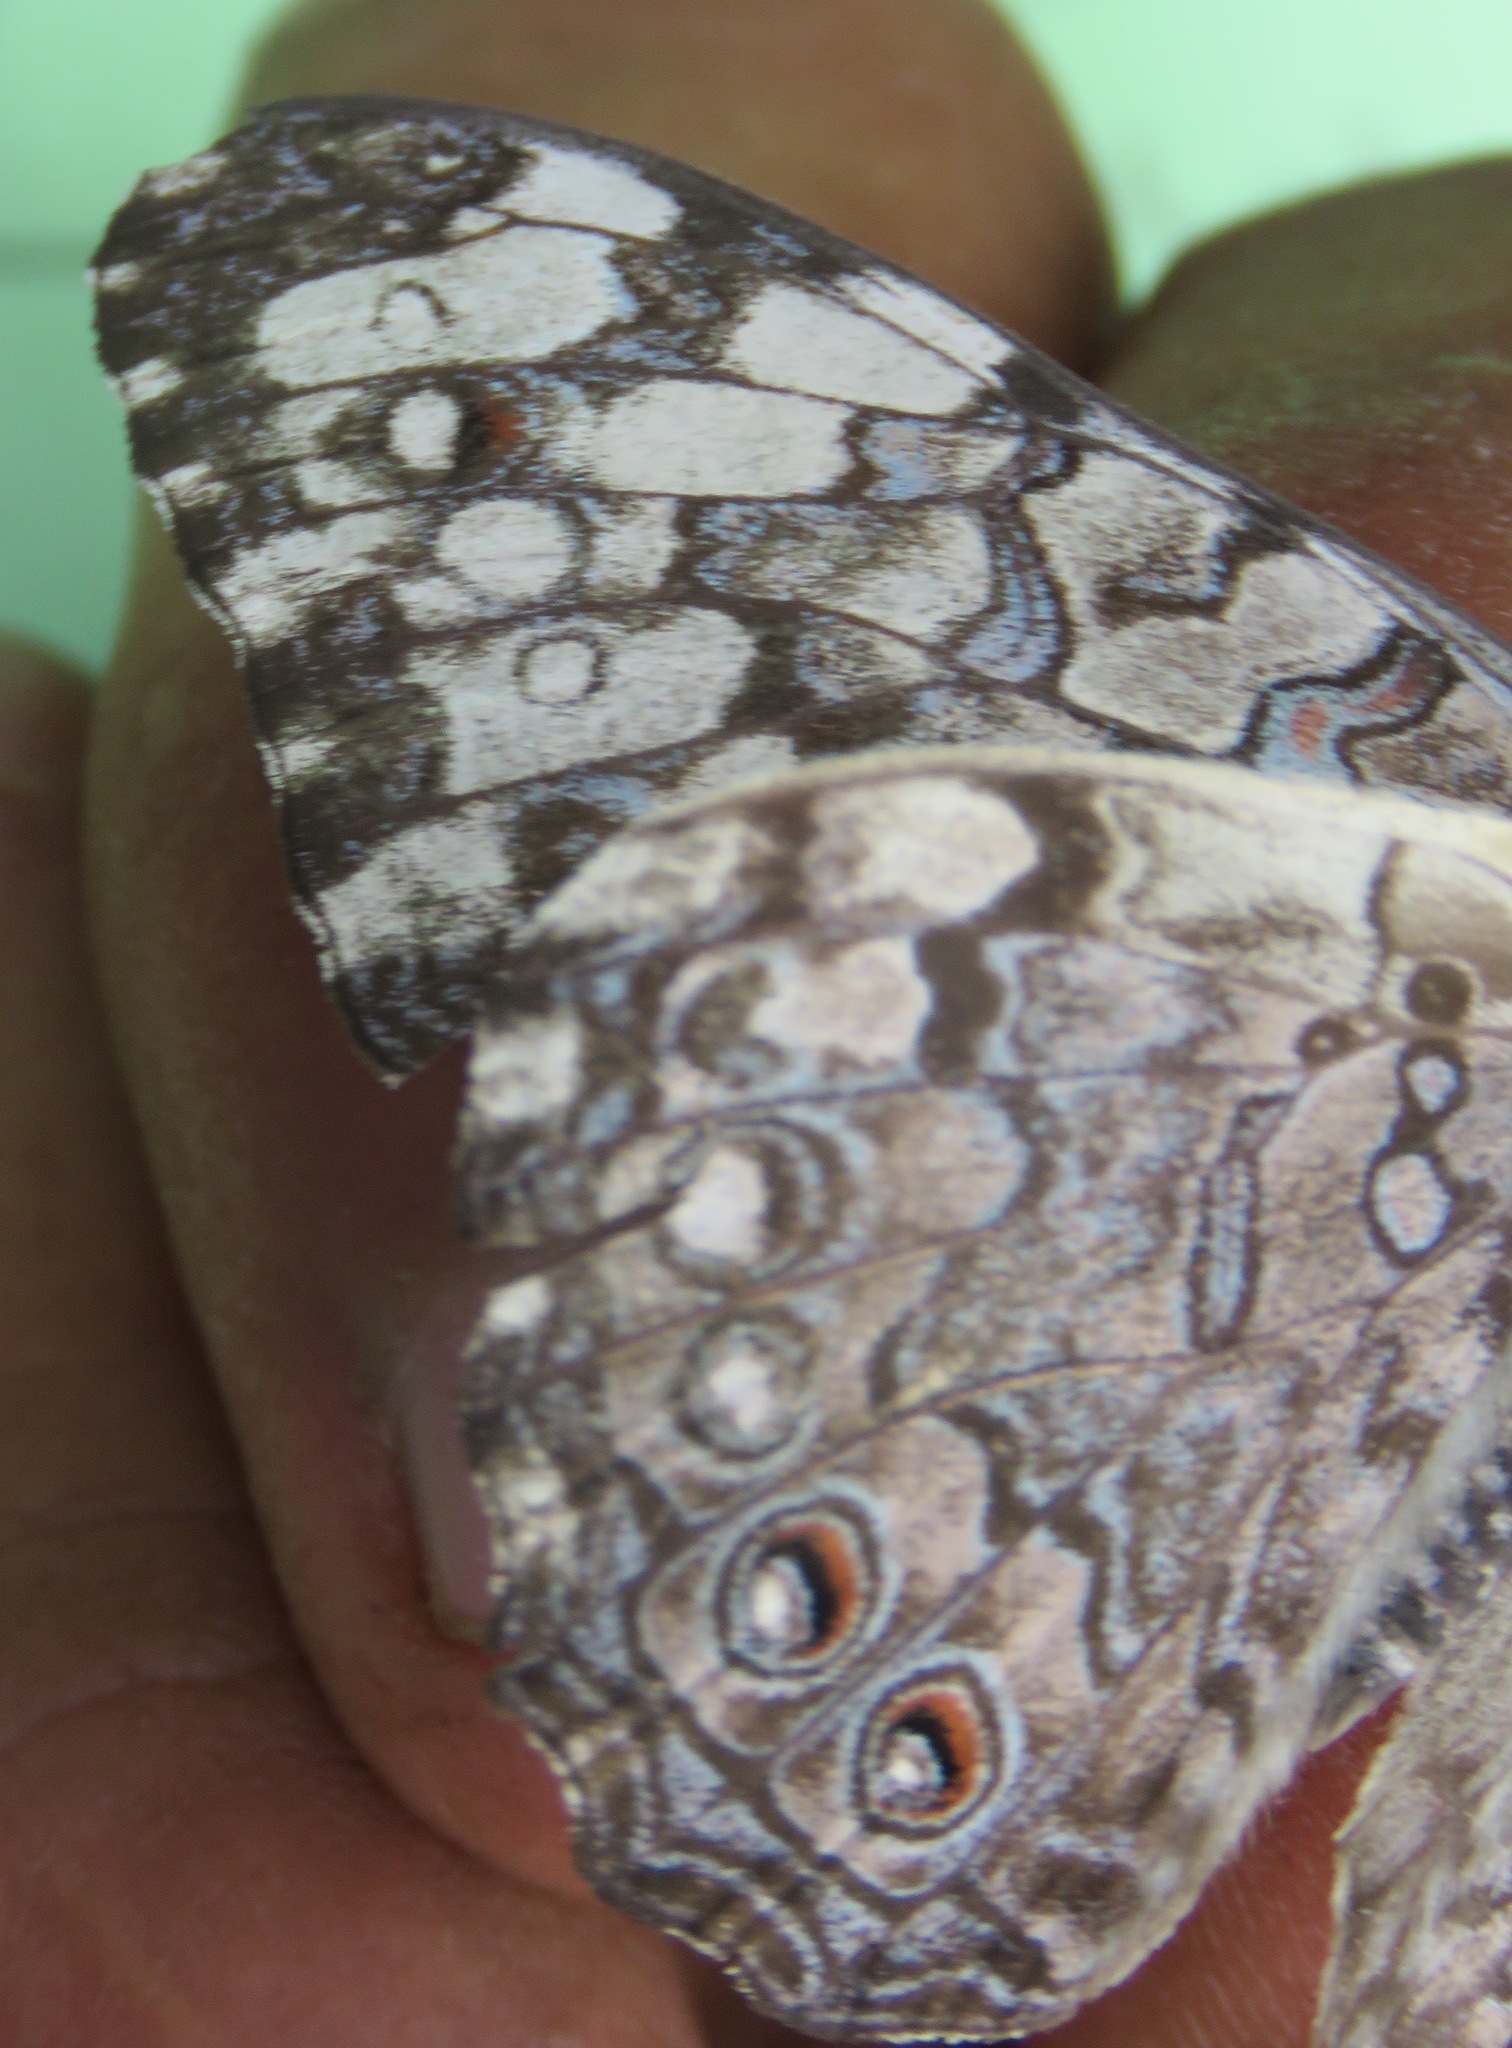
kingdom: Animalia
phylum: Arthropoda
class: Insecta
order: Lepidoptera
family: Nymphalidae
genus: Hamadryas
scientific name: Hamadryas februa
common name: Gray cracker
